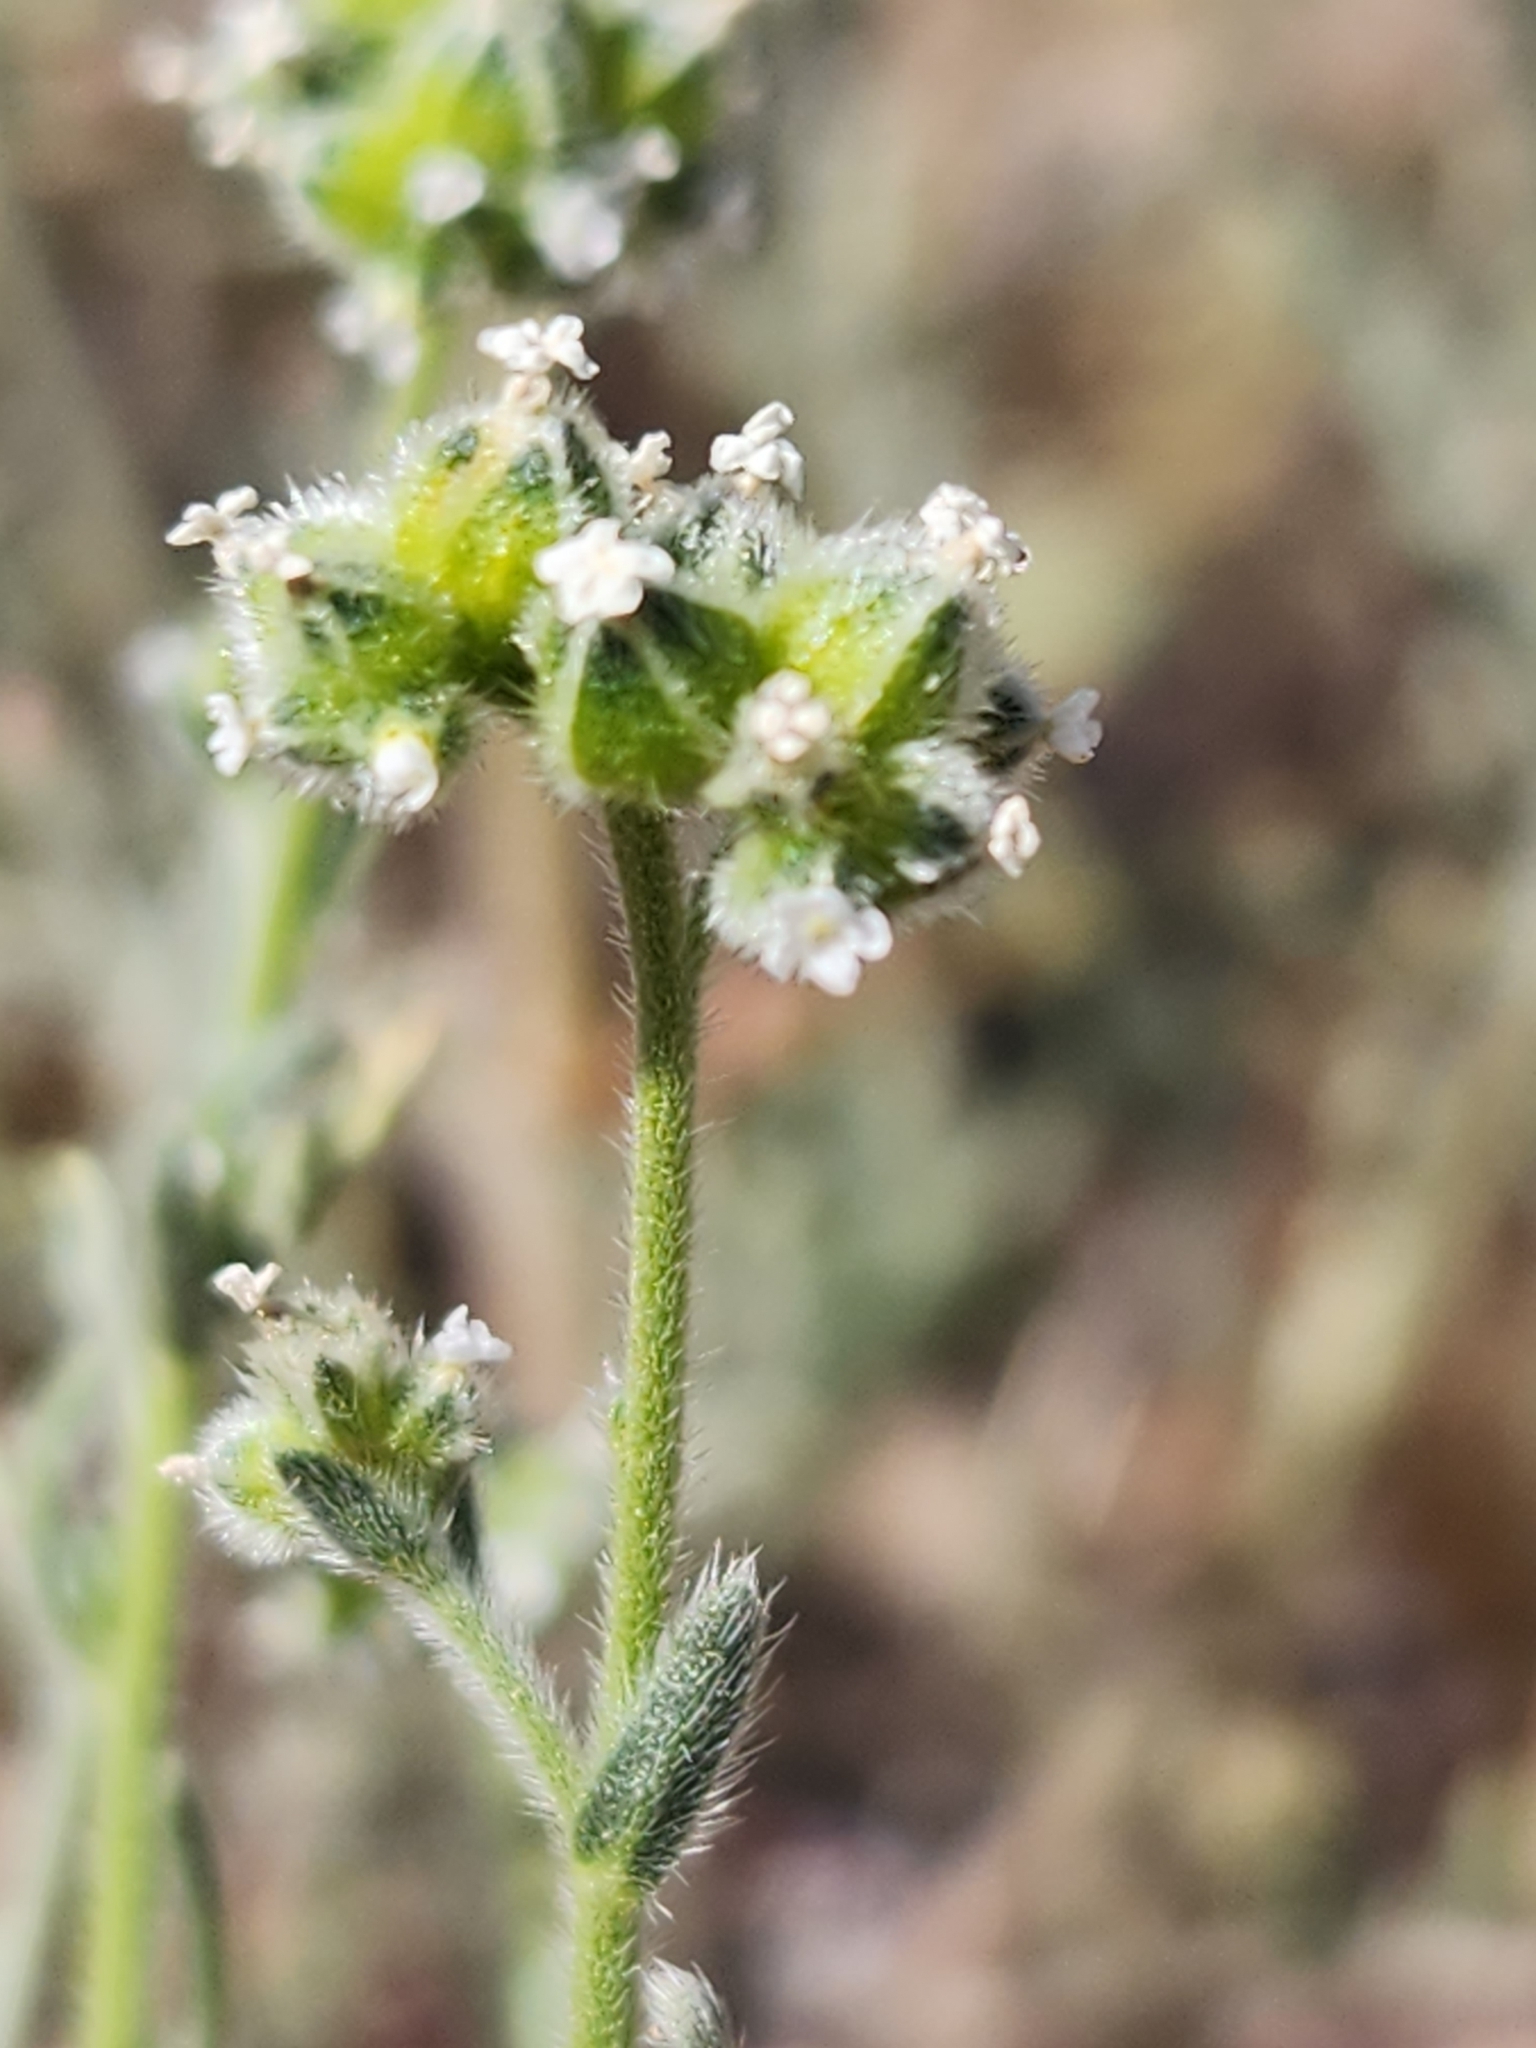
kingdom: Plantae
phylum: Tracheophyta
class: Magnoliopsida
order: Boraginales
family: Boraginaceae
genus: Cryptantha
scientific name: Cryptantha pterocarya
